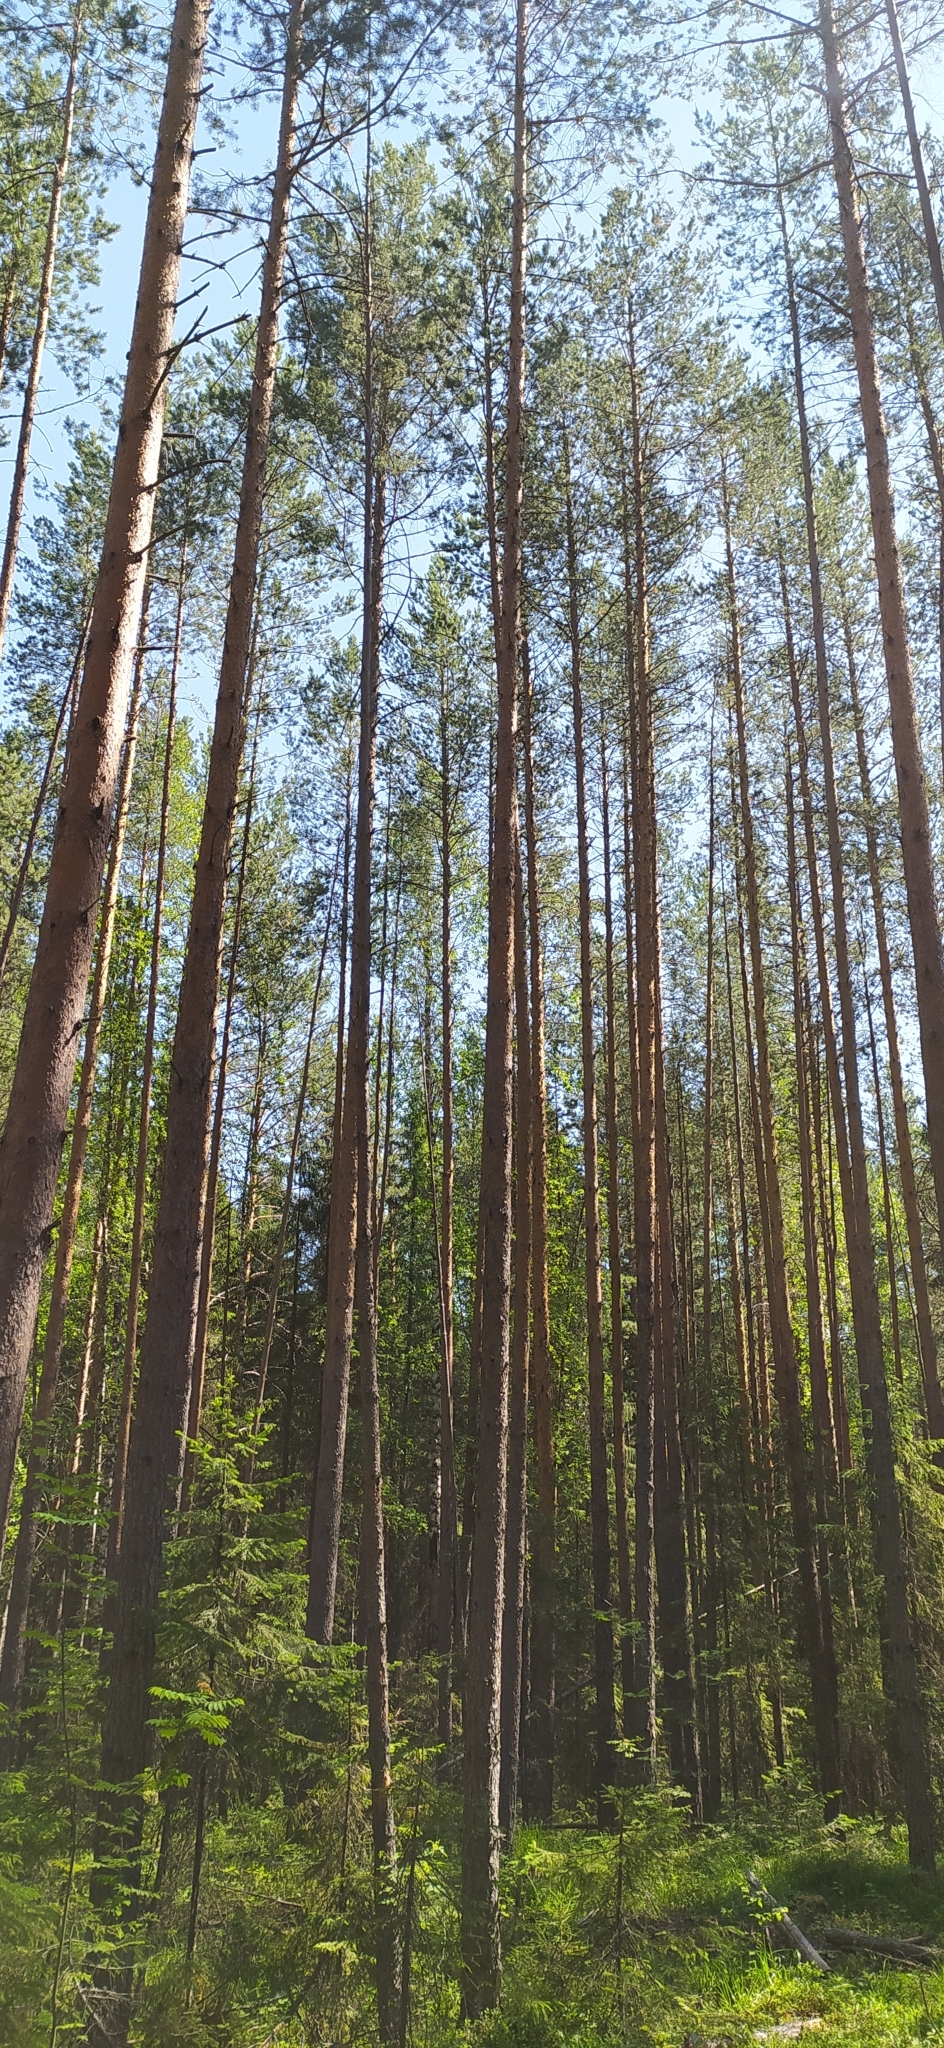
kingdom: Plantae
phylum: Tracheophyta
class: Pinopsida
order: Pinales
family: Pinaceae
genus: Pinus
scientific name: Pinus sylvestris
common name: Scots pine
